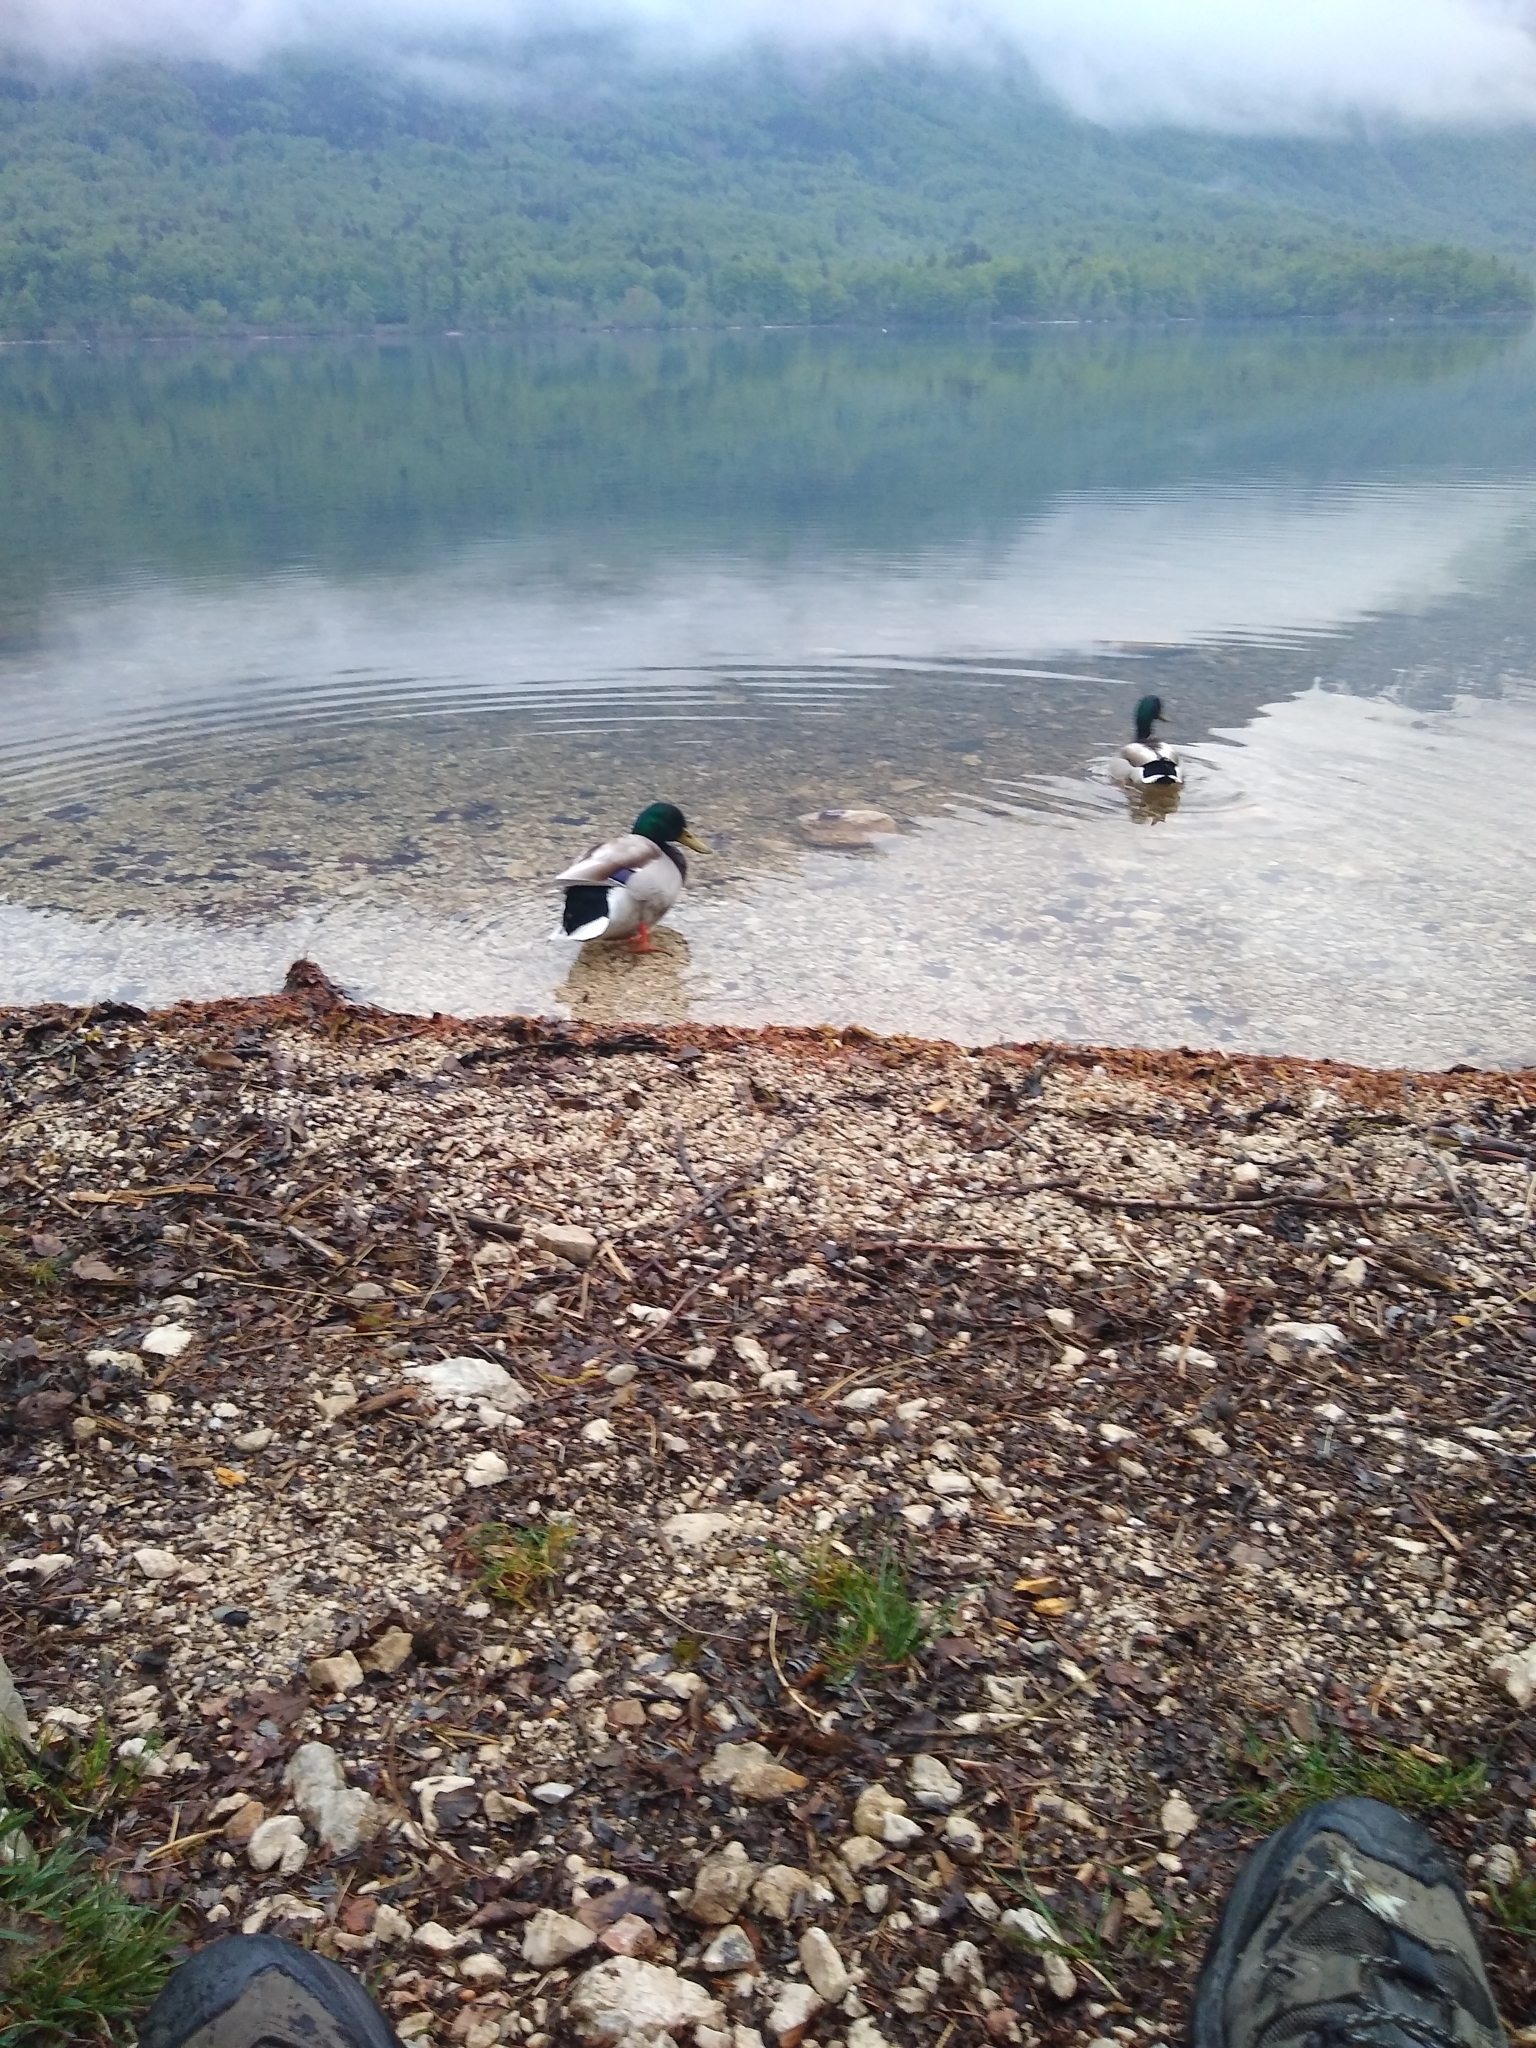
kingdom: Animalia
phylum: Chordata
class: Aves
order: Anseriformes
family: Anatidae
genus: Anas
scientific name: Anas platyrhynchos
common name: Mallard
